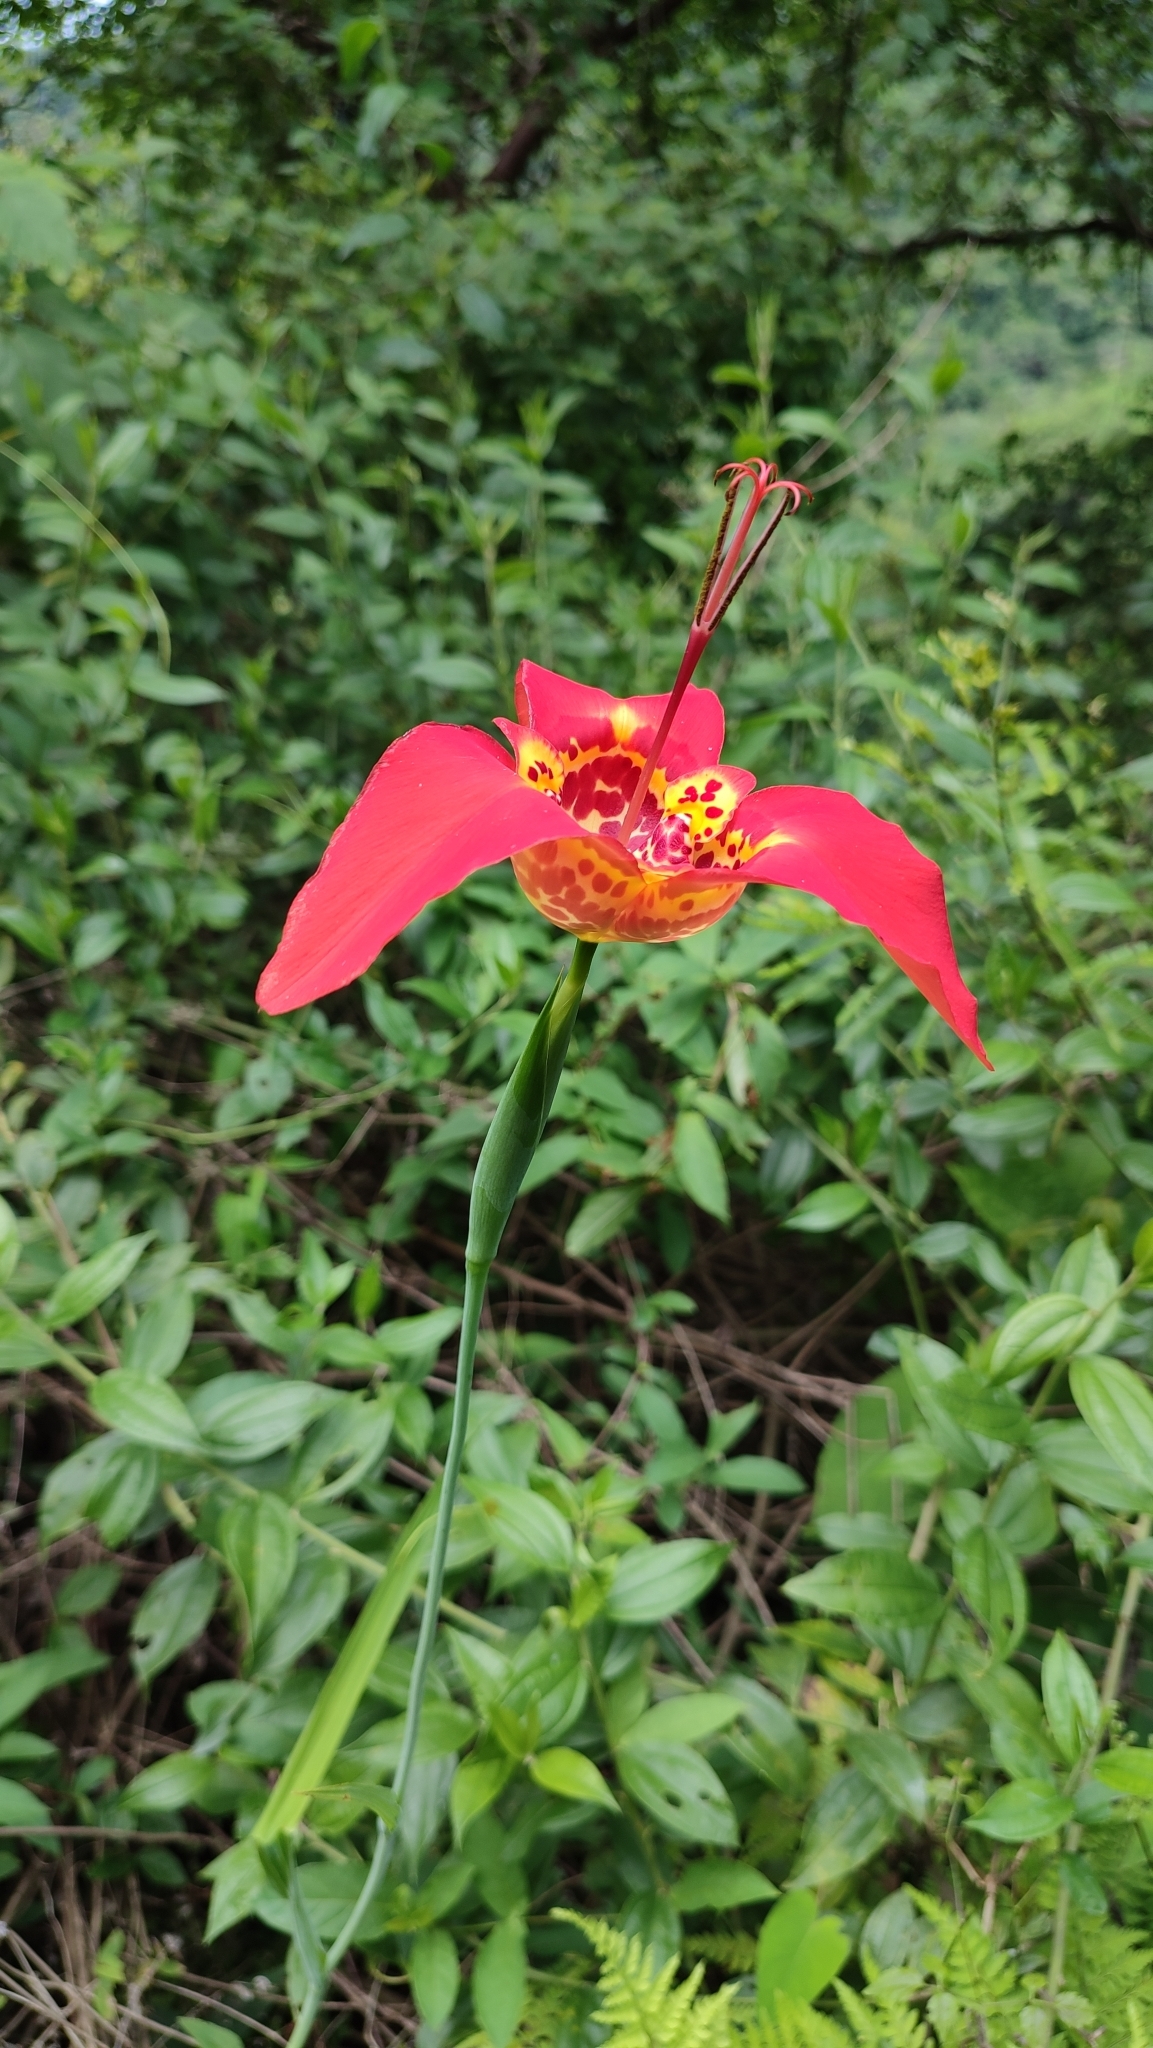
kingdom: Plantae
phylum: Tracheophyta
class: Liliopsida
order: Asparagales
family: Iridaceae
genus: Tigridia
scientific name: Tigridia pavonia
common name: Peacock-flower
